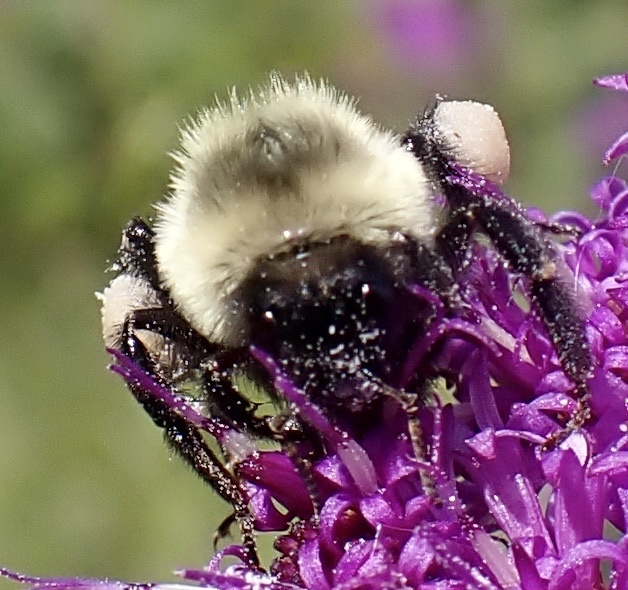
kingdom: Animalia
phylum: Arthropoda
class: Insecta
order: Hymenoptera
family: Apidae
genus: Bombus
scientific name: Bombus impatiens
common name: Common eastern bumble bee
